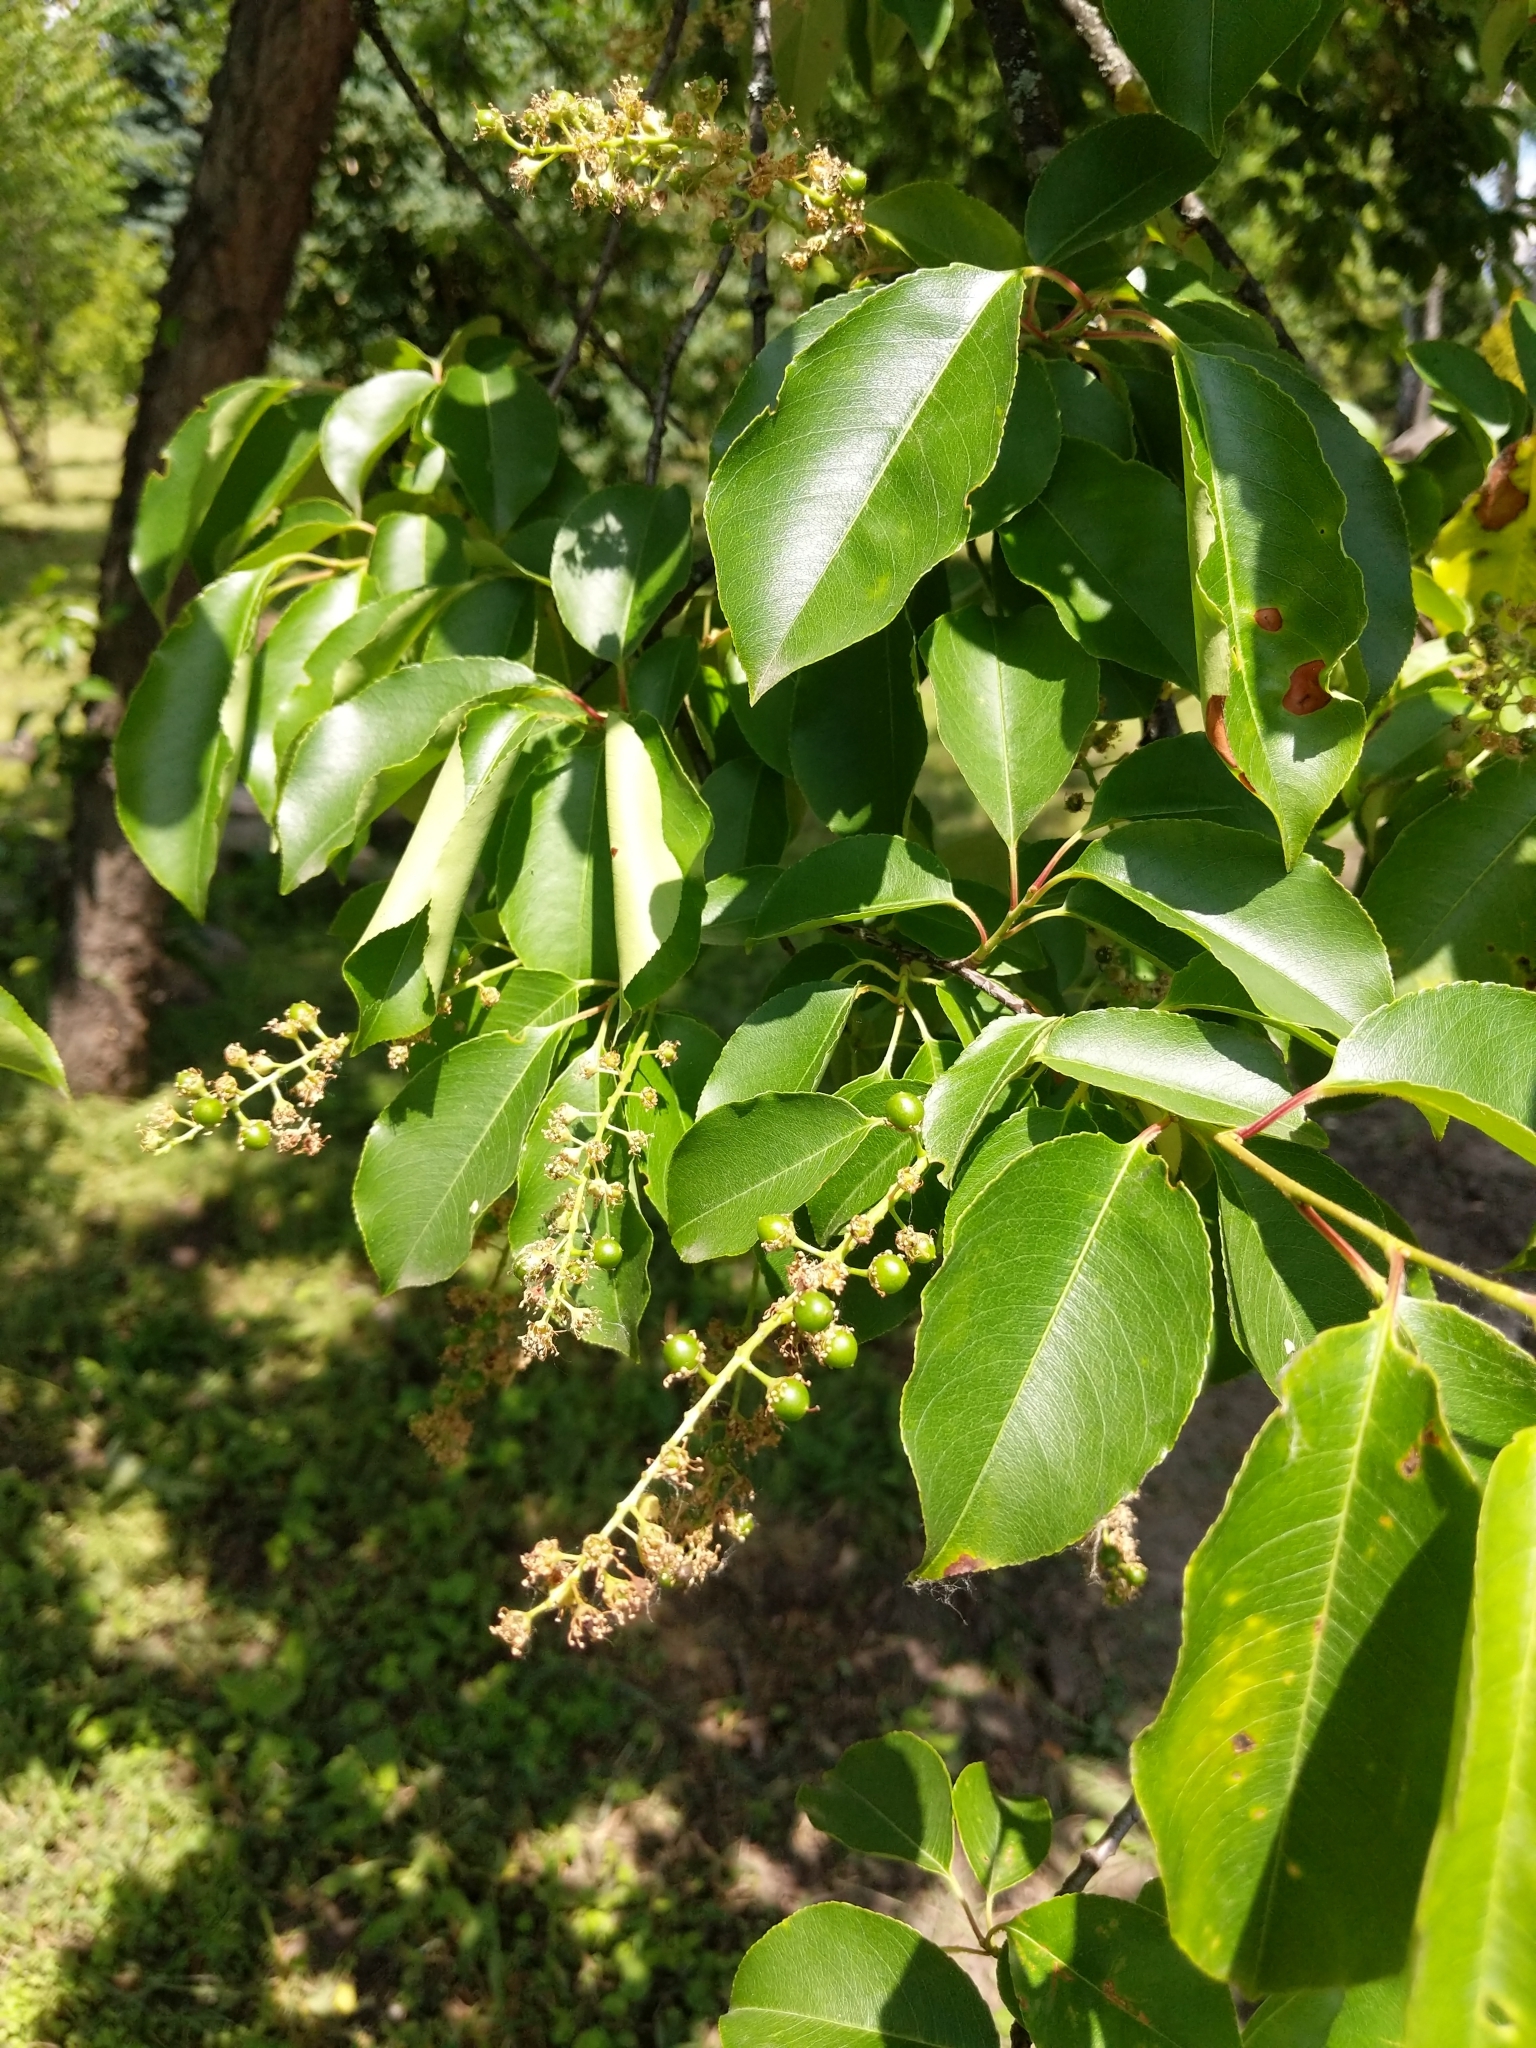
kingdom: Plantae
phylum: Tracheophyta
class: Magnoliopsida
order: Rosales
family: Rosaceae
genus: Prunus
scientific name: Prunus serotina
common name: Black cherry
